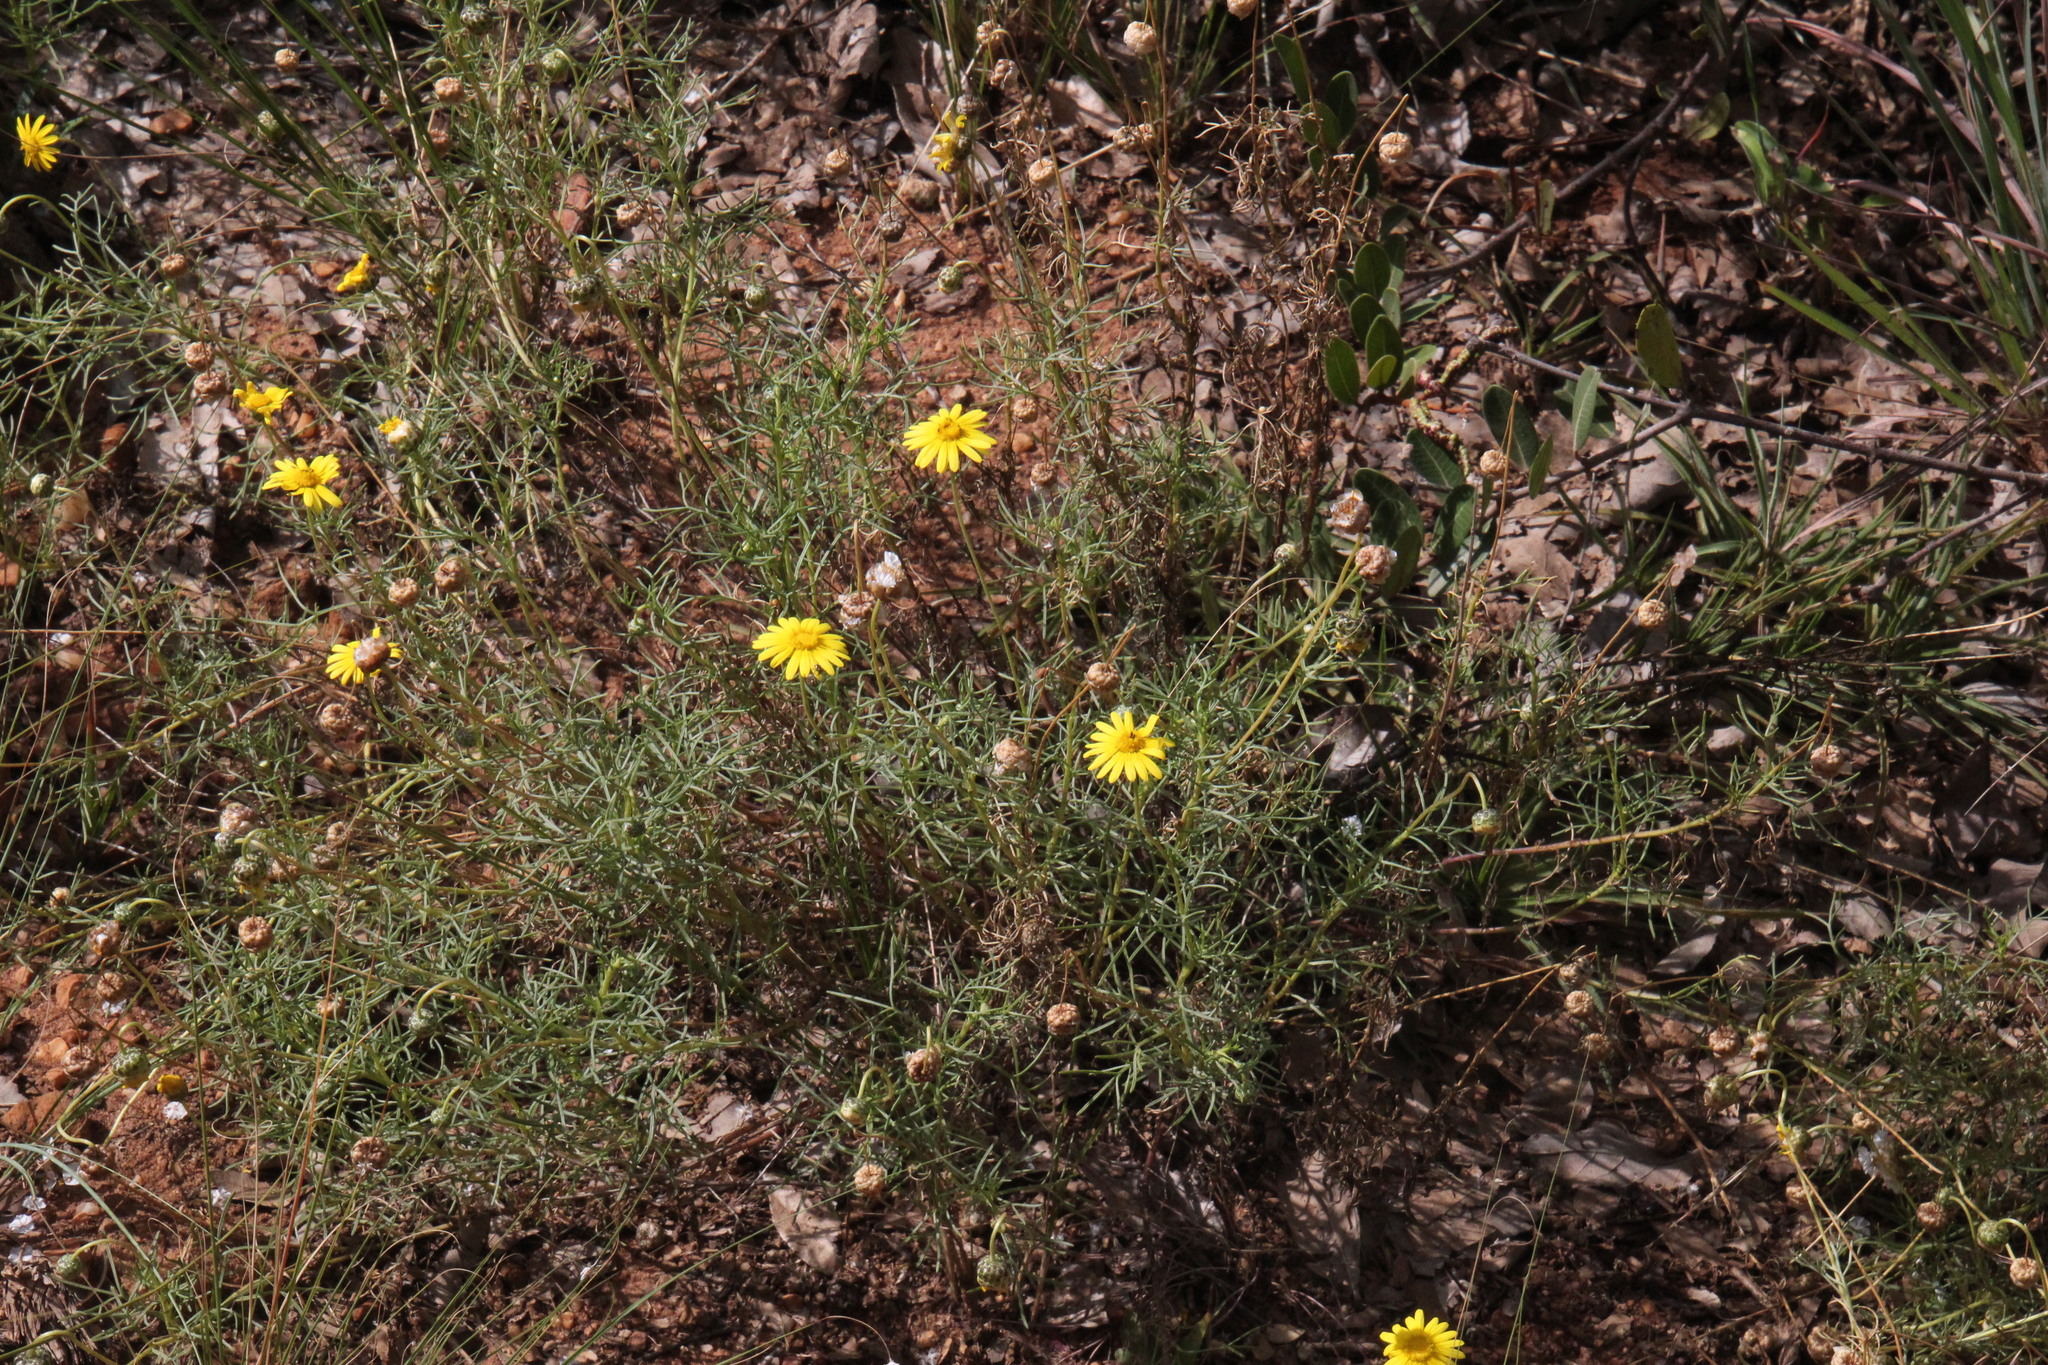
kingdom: Plantae
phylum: Tracheophyta
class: Magnoliopsida
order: Asterales
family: Asteraceae
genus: Ursinia
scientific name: Ursinia nana
